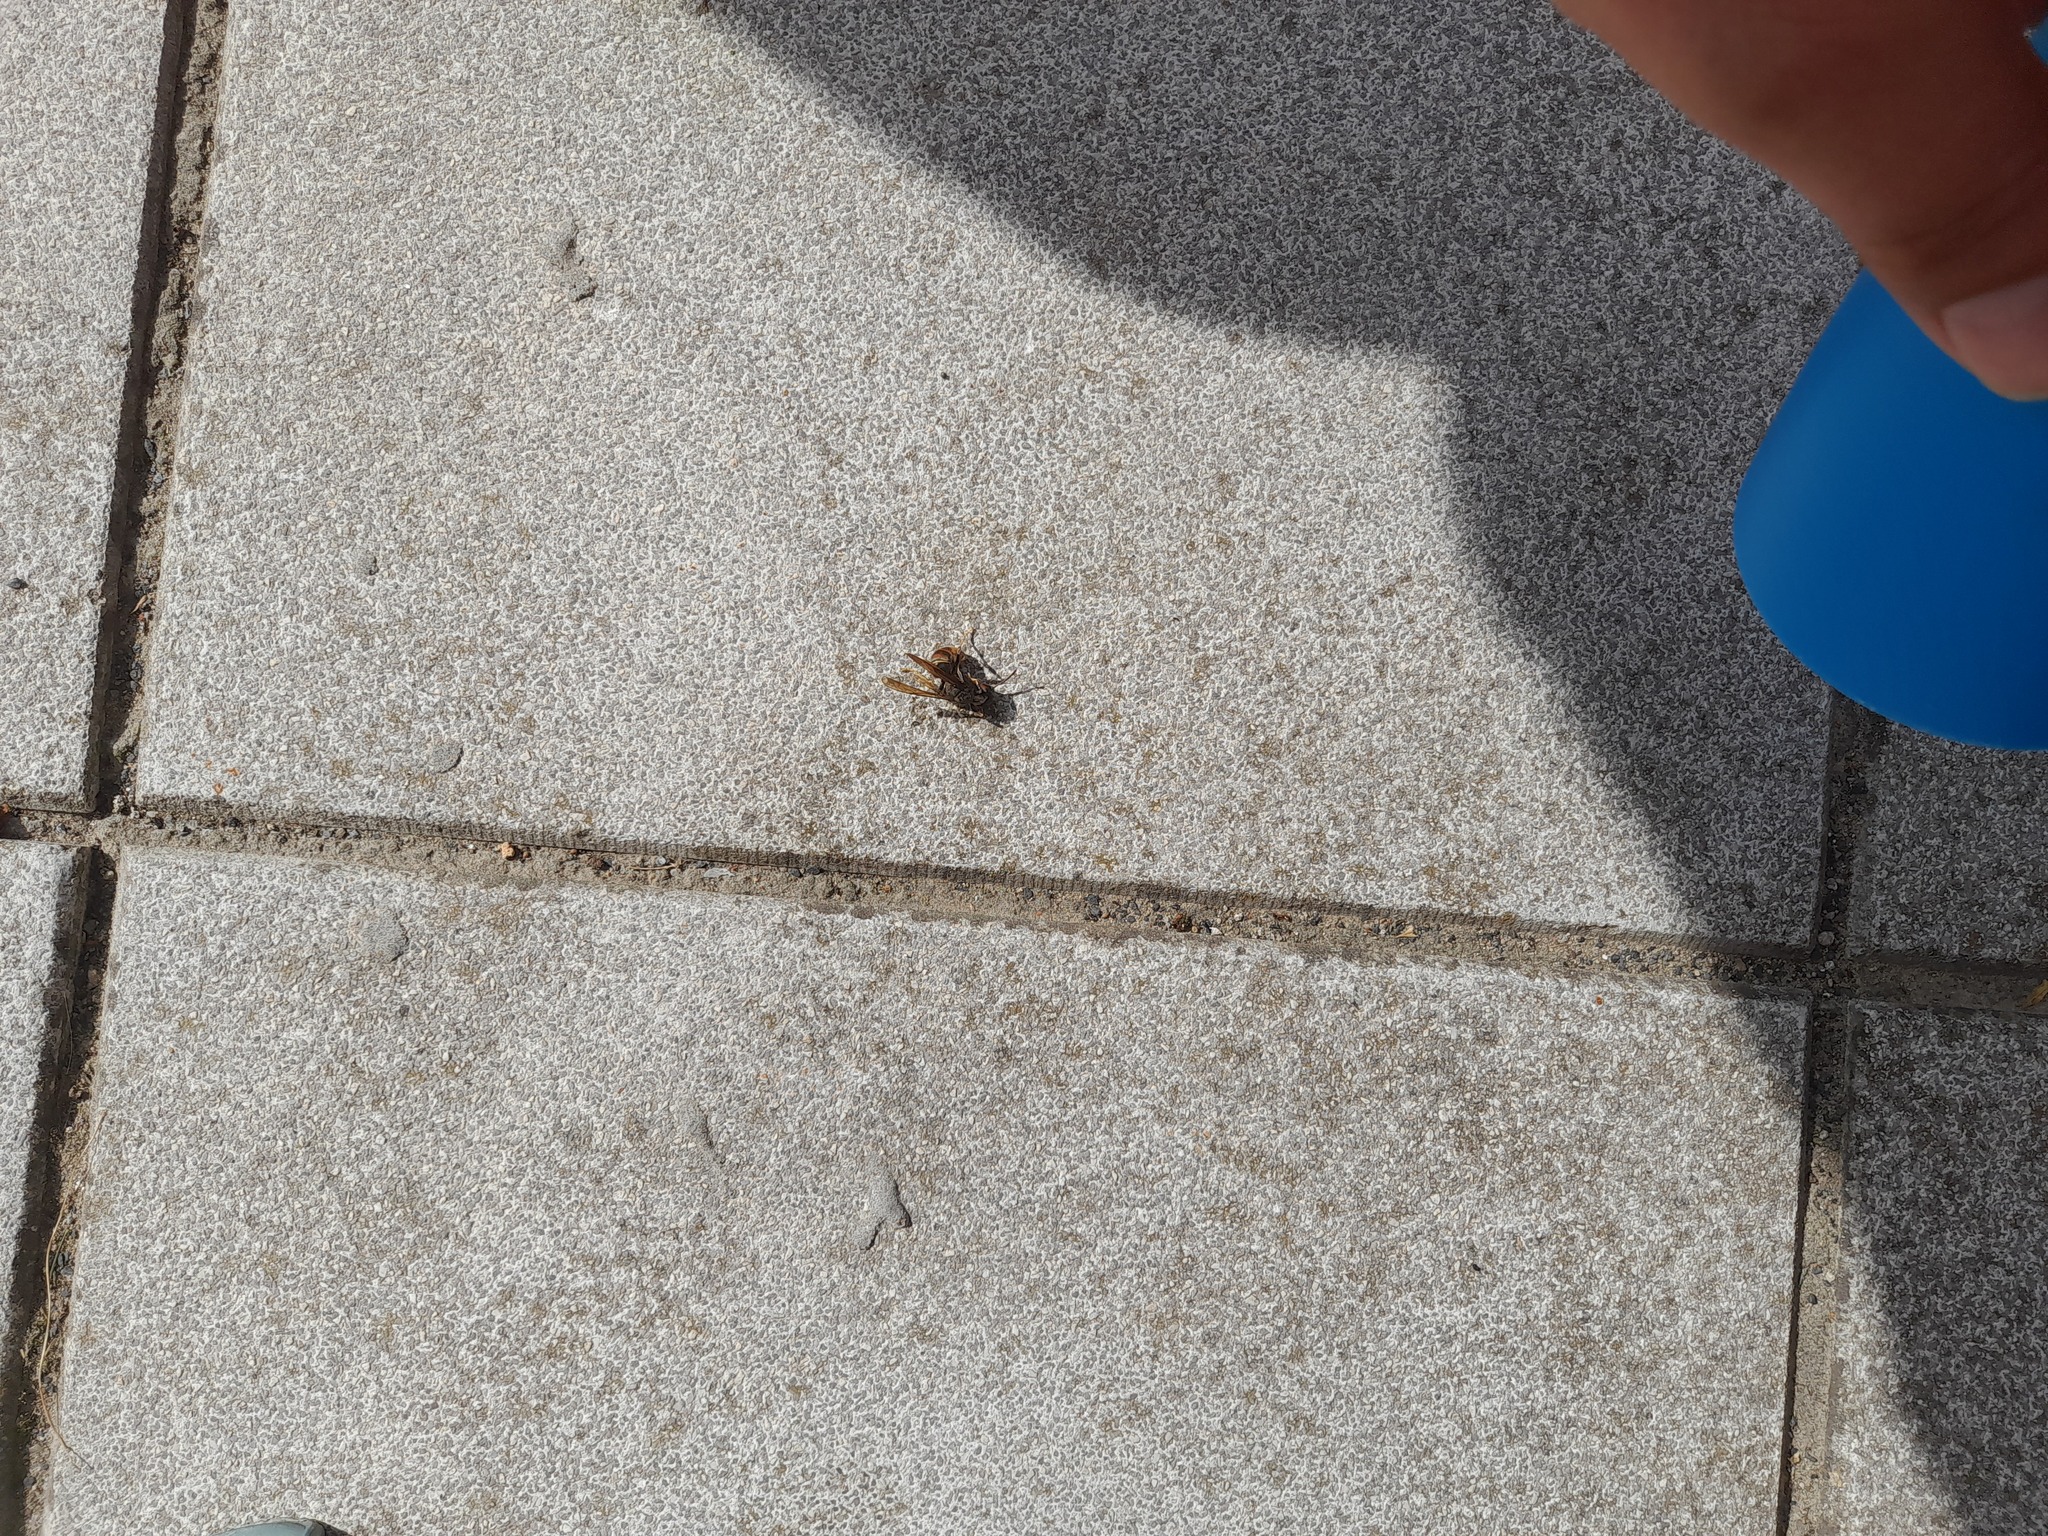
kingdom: Animalia
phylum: Arthropoda
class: Insecta
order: Hymenoptera
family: Vespidae
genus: Vespa
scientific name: Vespa velutina
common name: Asian hornet
